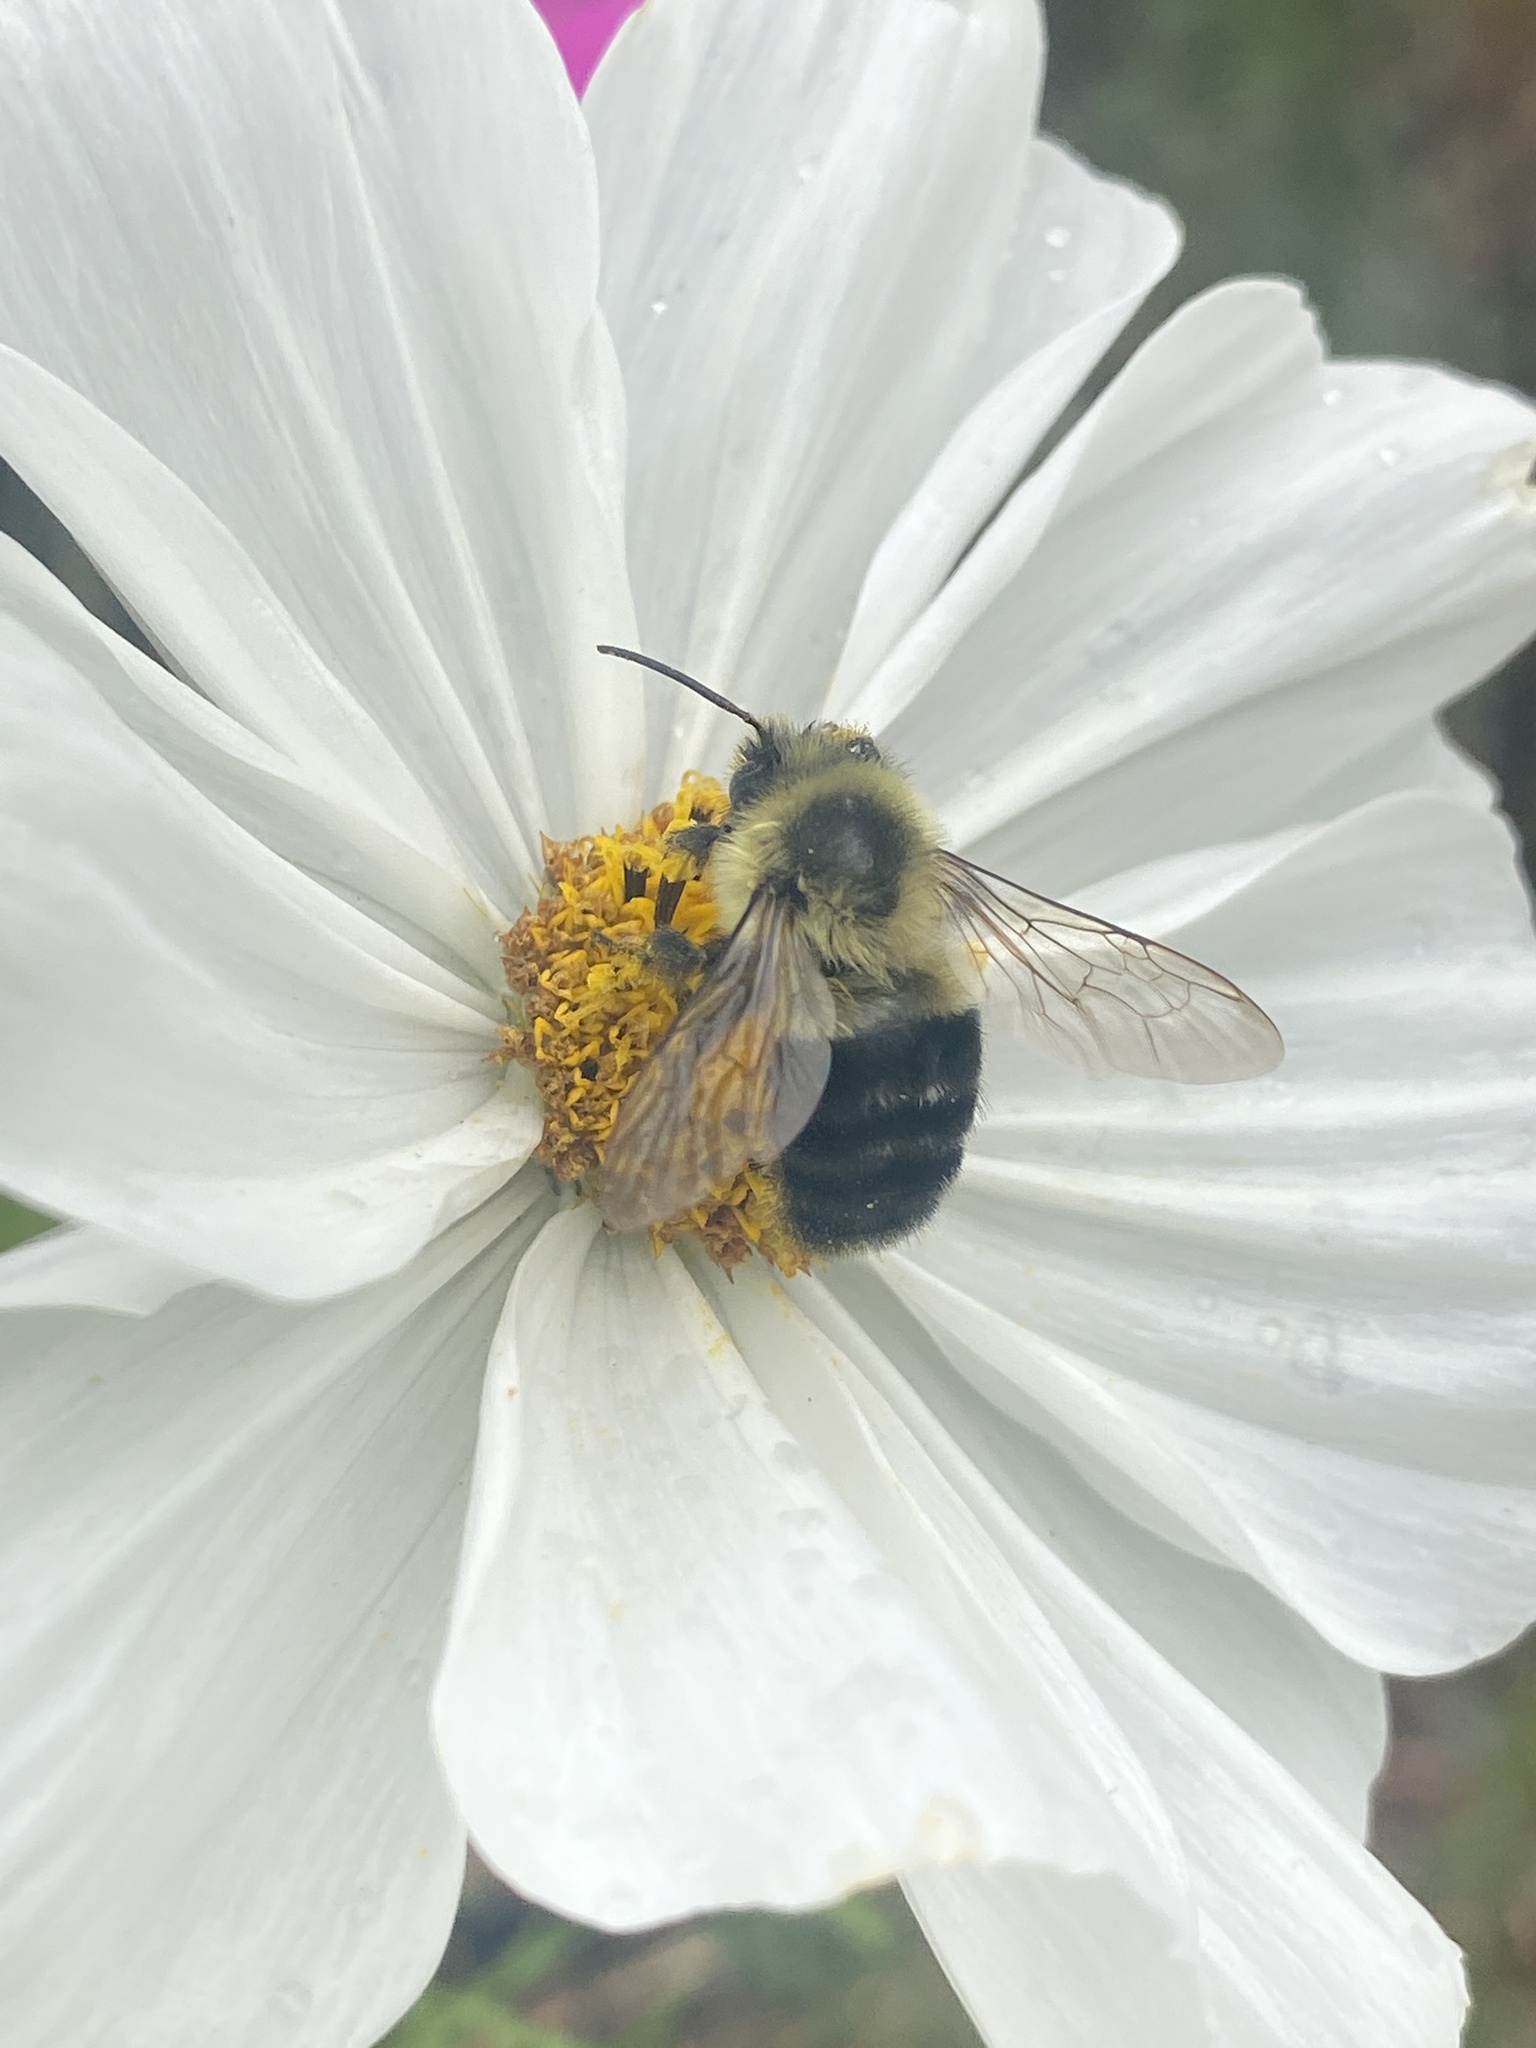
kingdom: Animalia
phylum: Arthropoda
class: Insecta
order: Hymenoptera
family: Apidae
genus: Bombus
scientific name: Bombus impatiens
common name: Common eastern bumble bee
